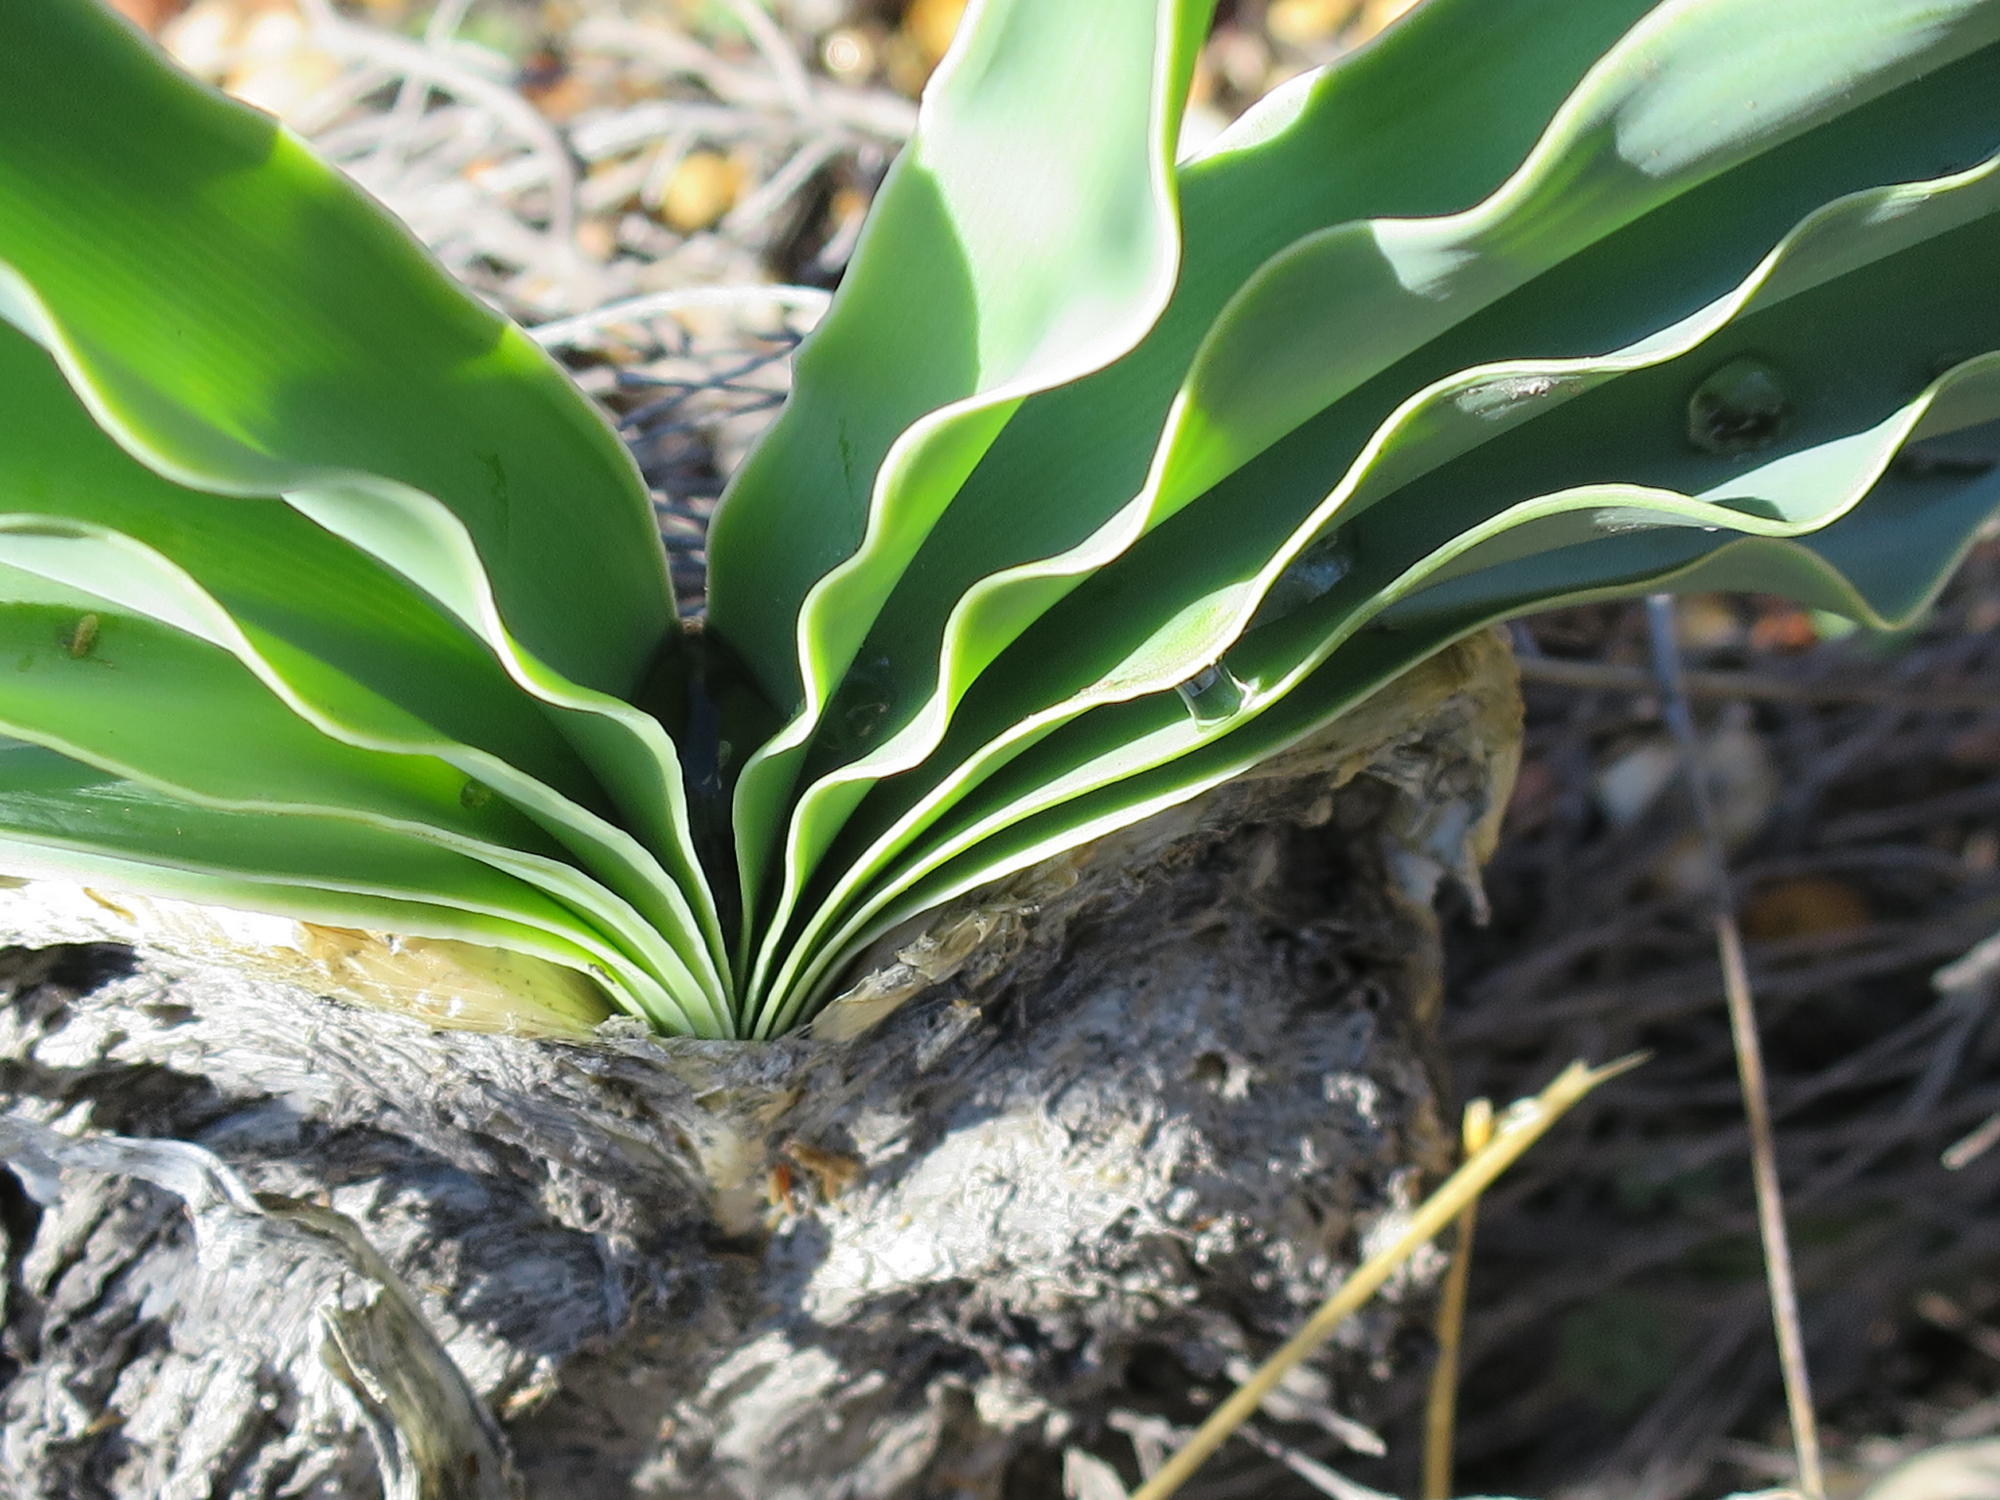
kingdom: Plantae
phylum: Tracheophyta
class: Liliopsida
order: Asparagales
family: Amaryllidaceae
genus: Boophone
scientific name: Boophone disticha
